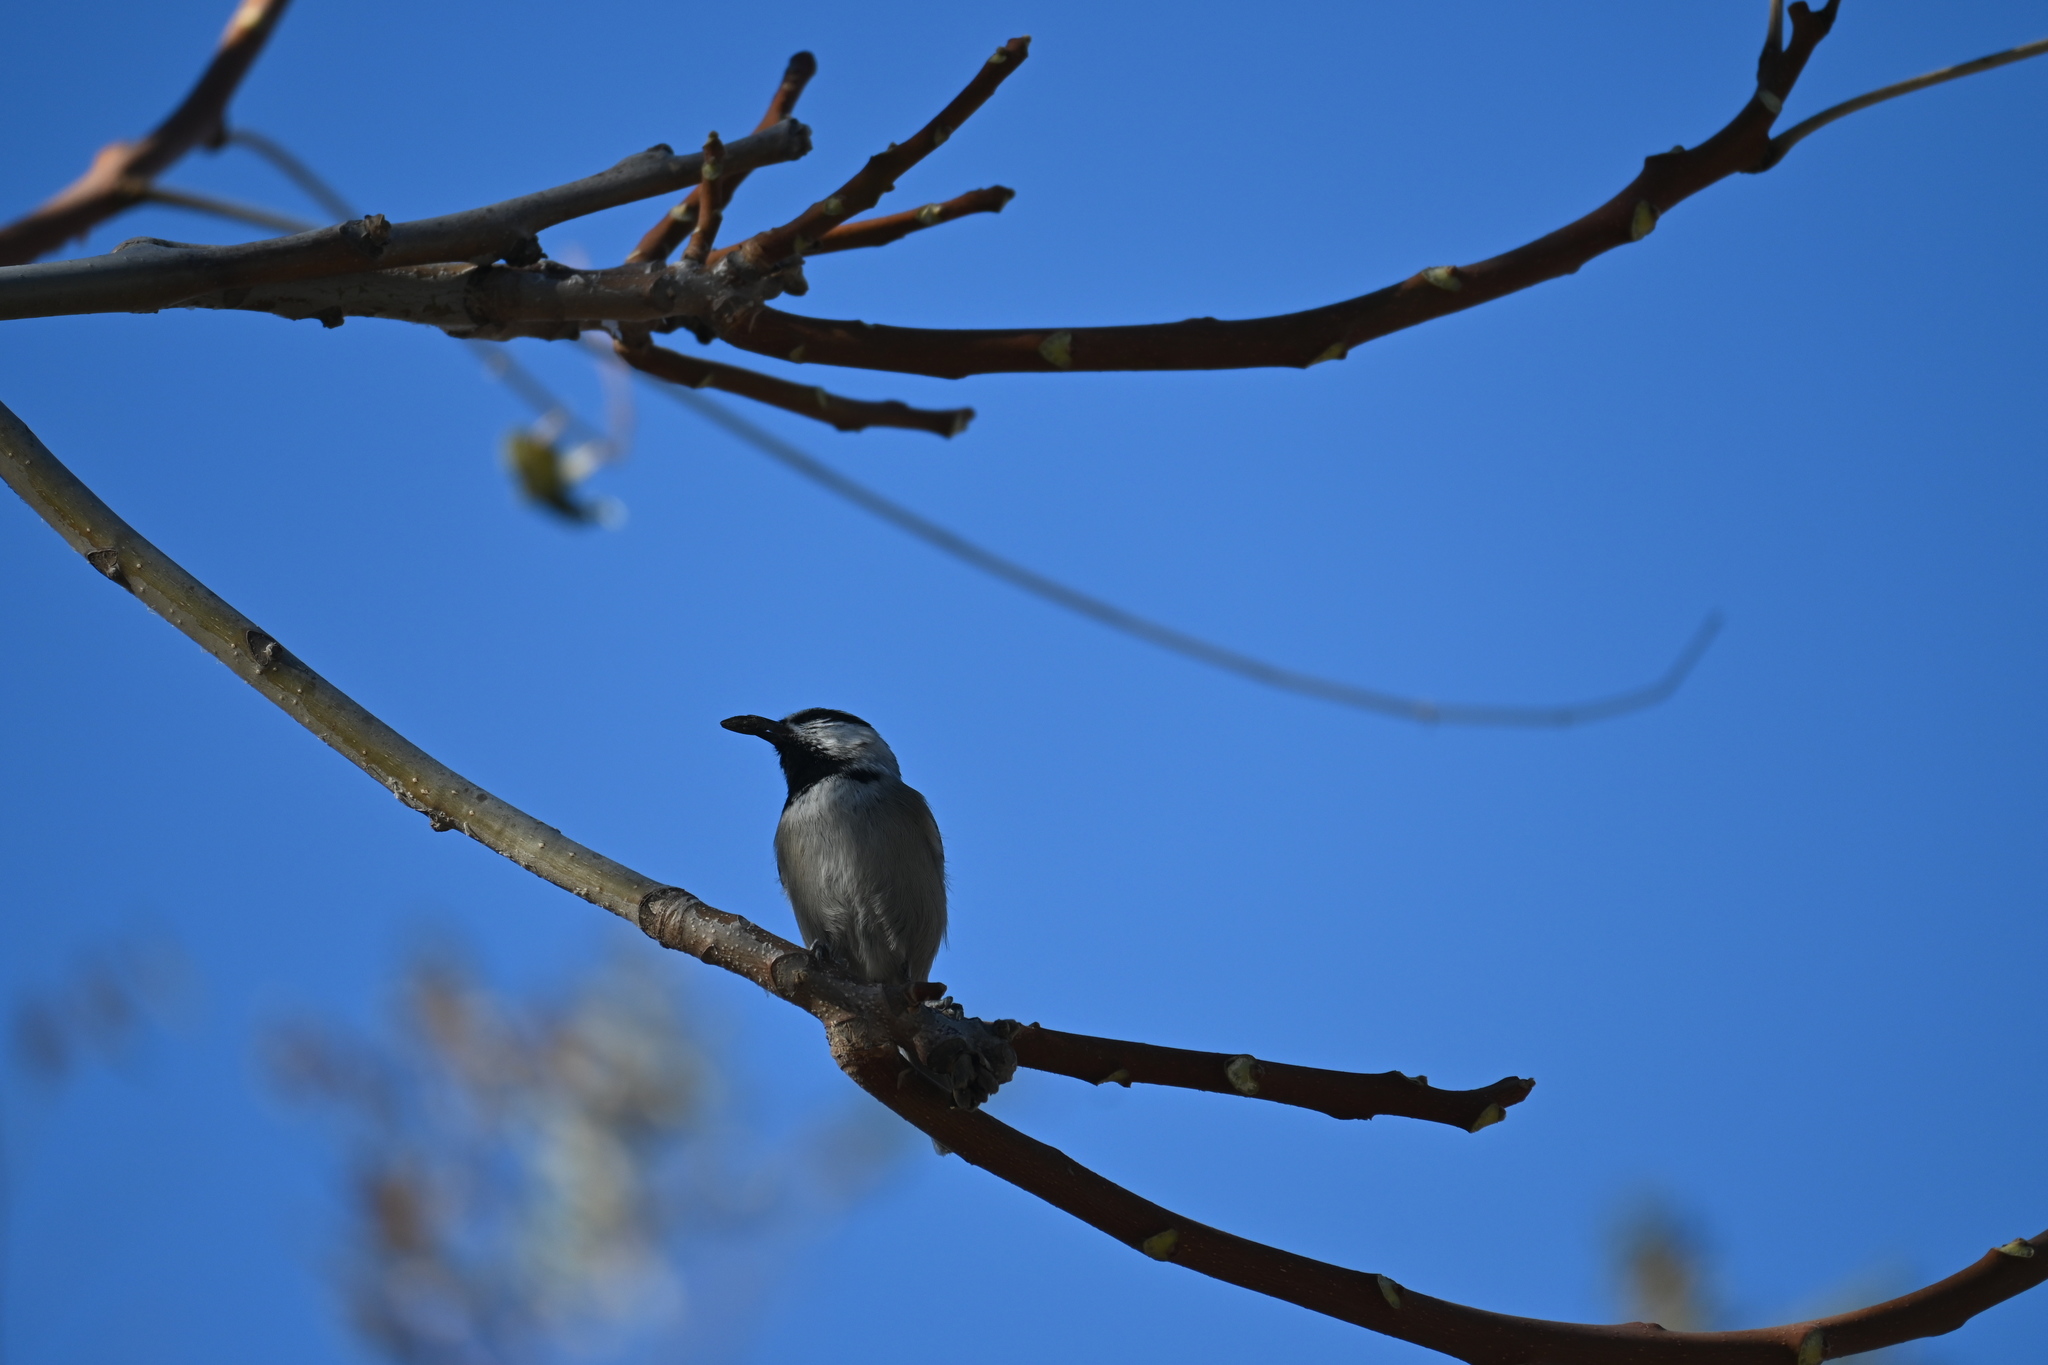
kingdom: Animalia
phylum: Chordata
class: Aves
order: Passeriformes
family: Paridae
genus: Poecile
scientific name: Poecile gambeli
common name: Mountain chickadee
